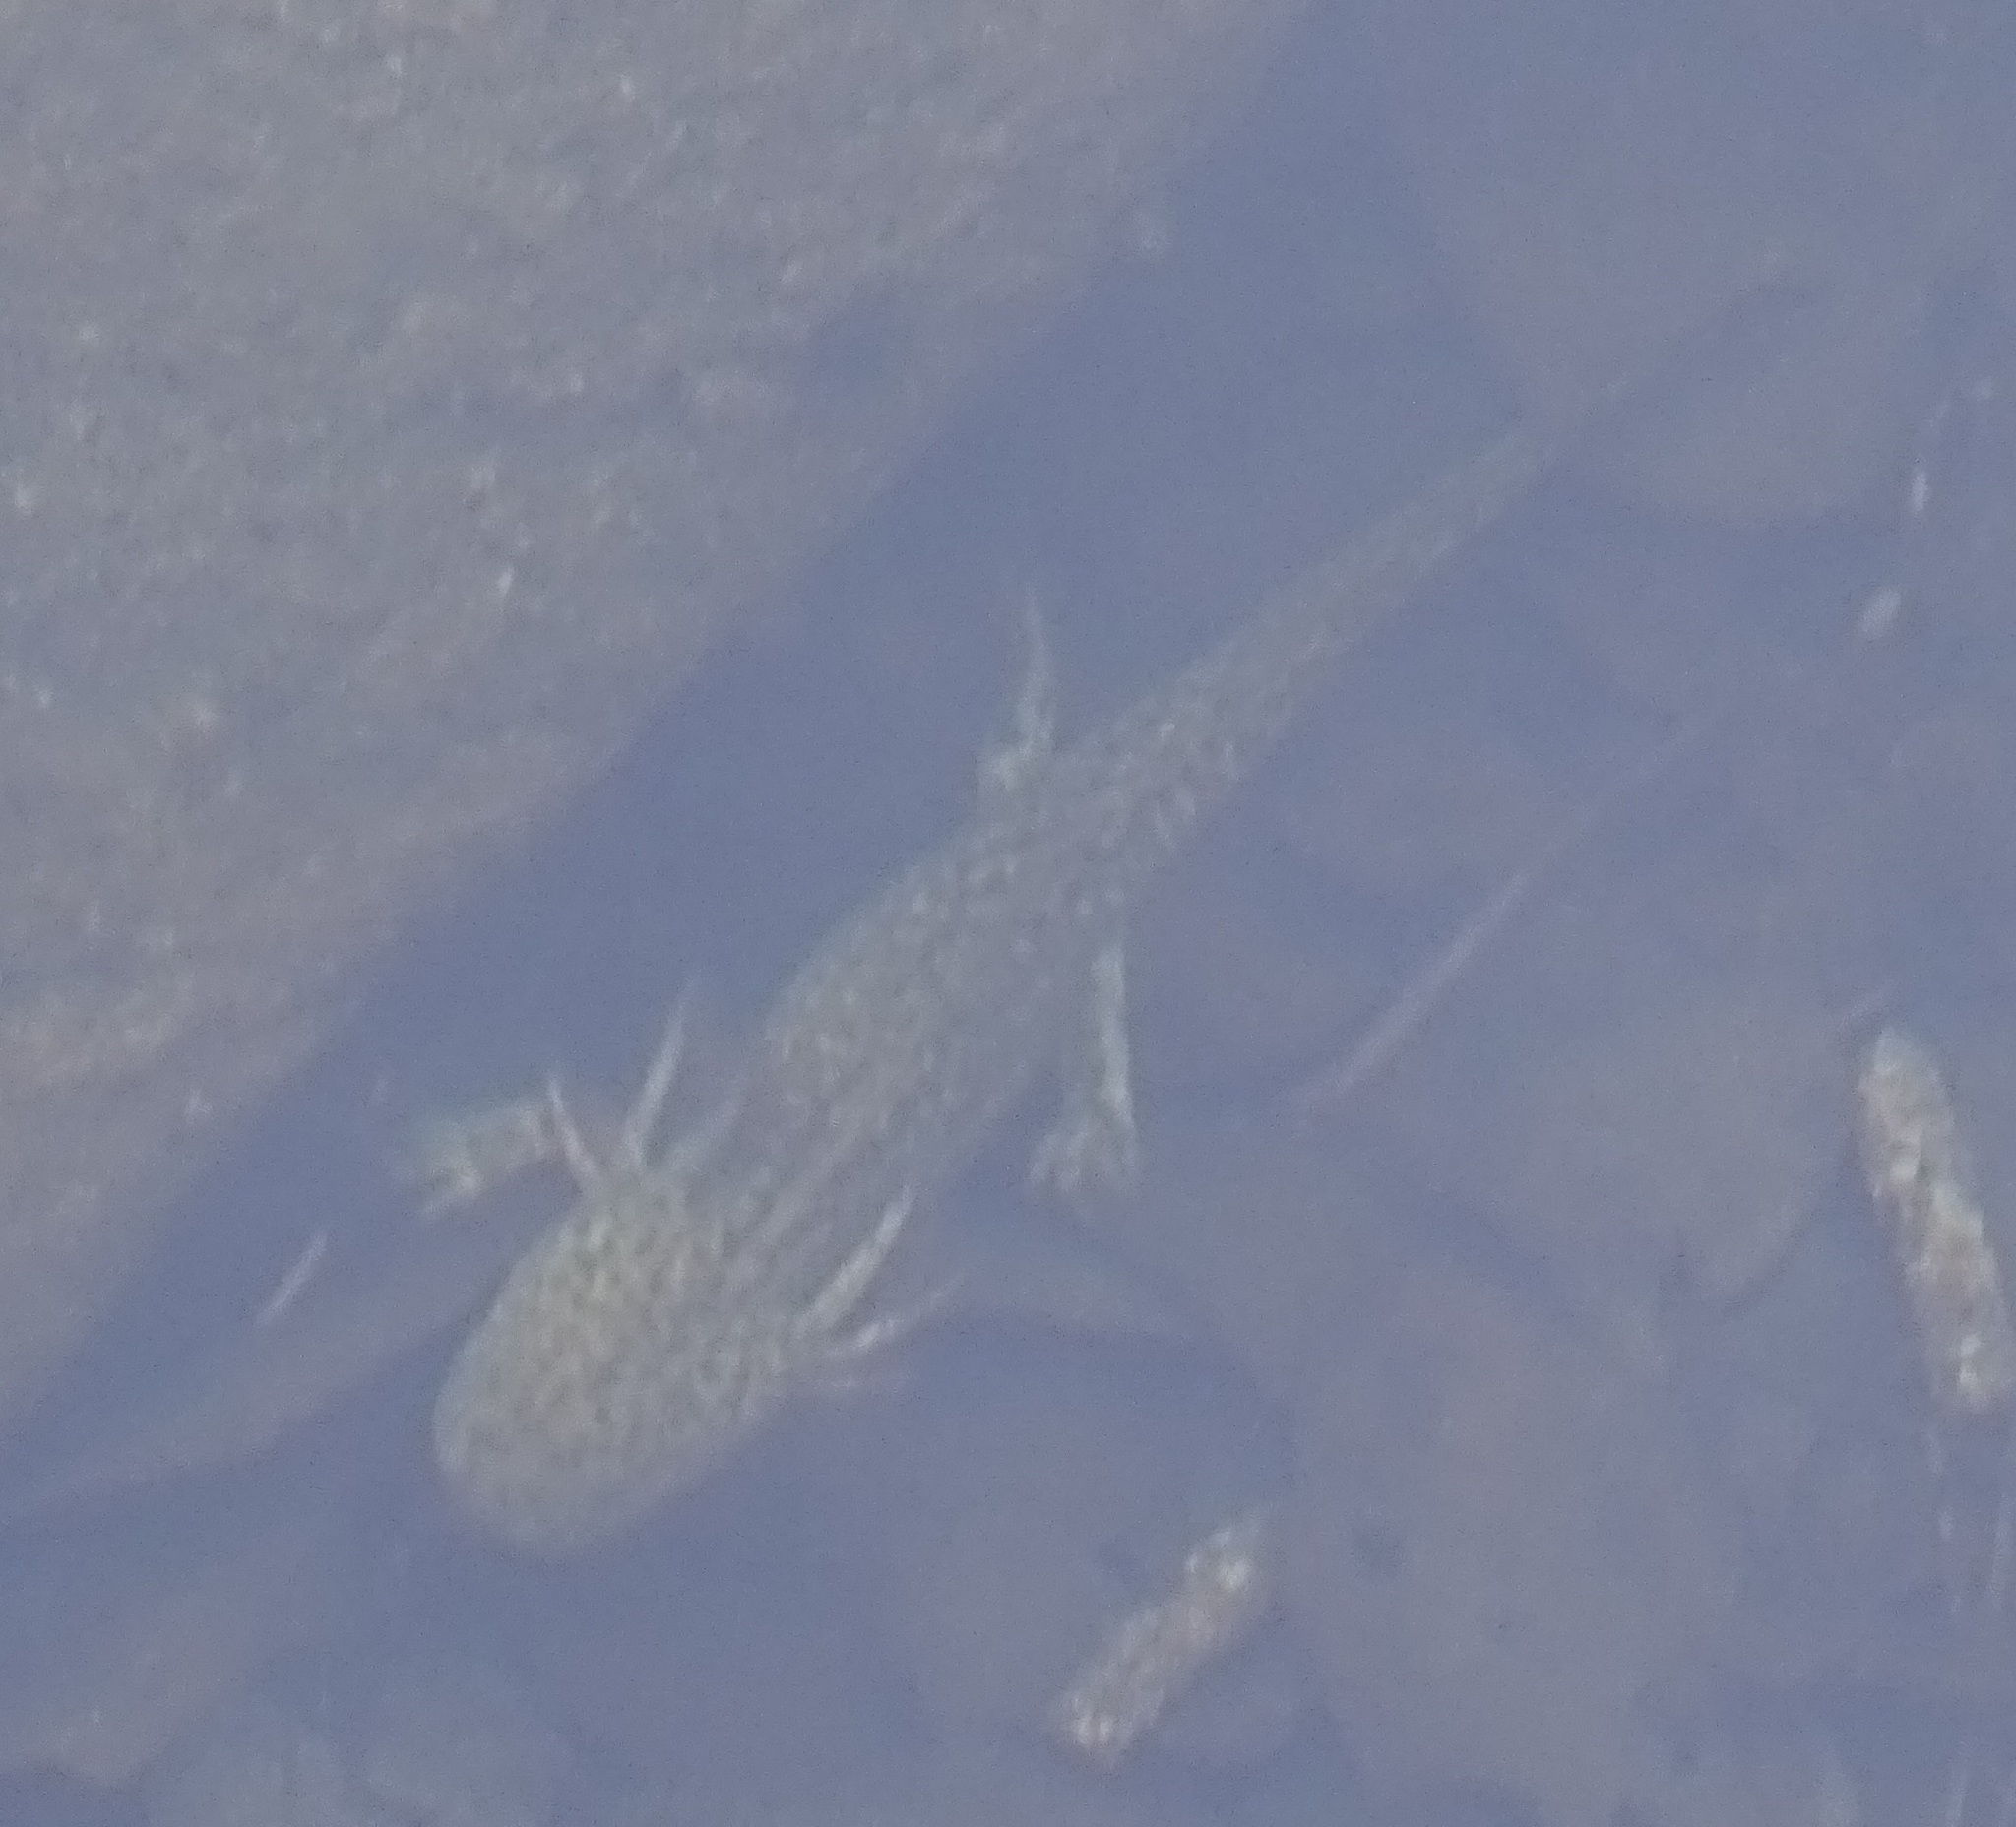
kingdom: Animalia
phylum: Chordata
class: Amphibia
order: Caudata
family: Ambystomatidae
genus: Ambystoma
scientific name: Ambystoma rosaceum
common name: Tarahumara salamander
